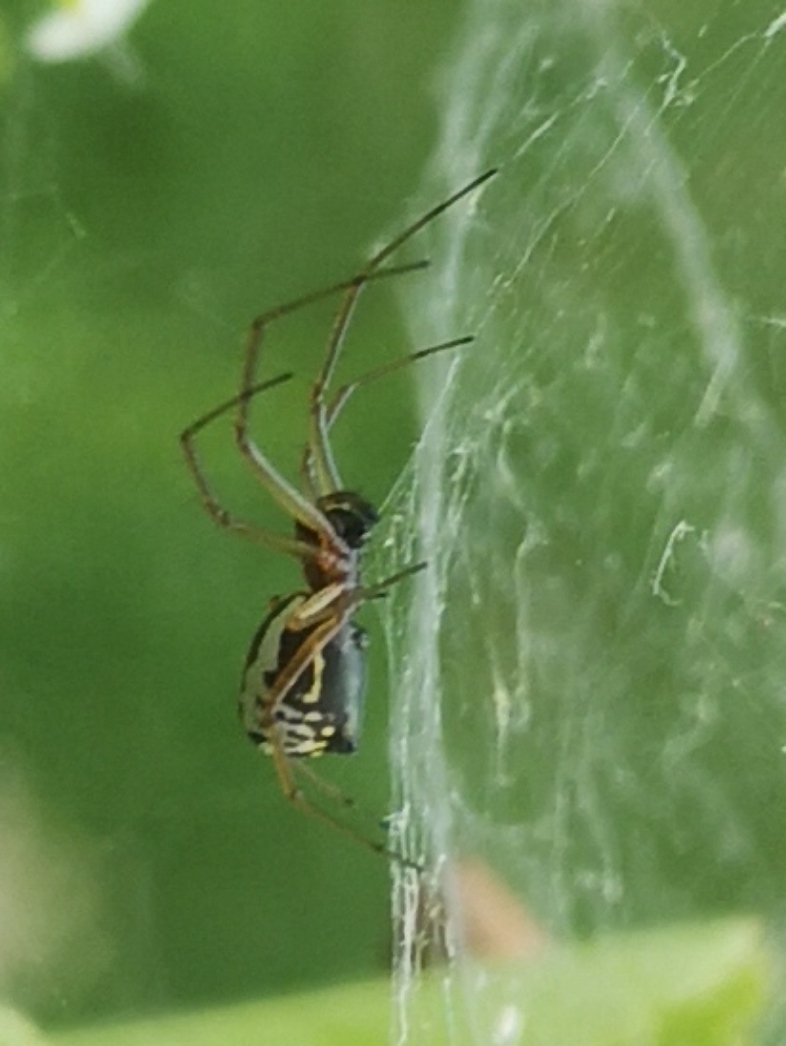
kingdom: Animalia
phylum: Arthropoda
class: Arachnida
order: Araneae
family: Linyphiidae
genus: Frontinellina
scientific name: Frontinellina frutetorum
